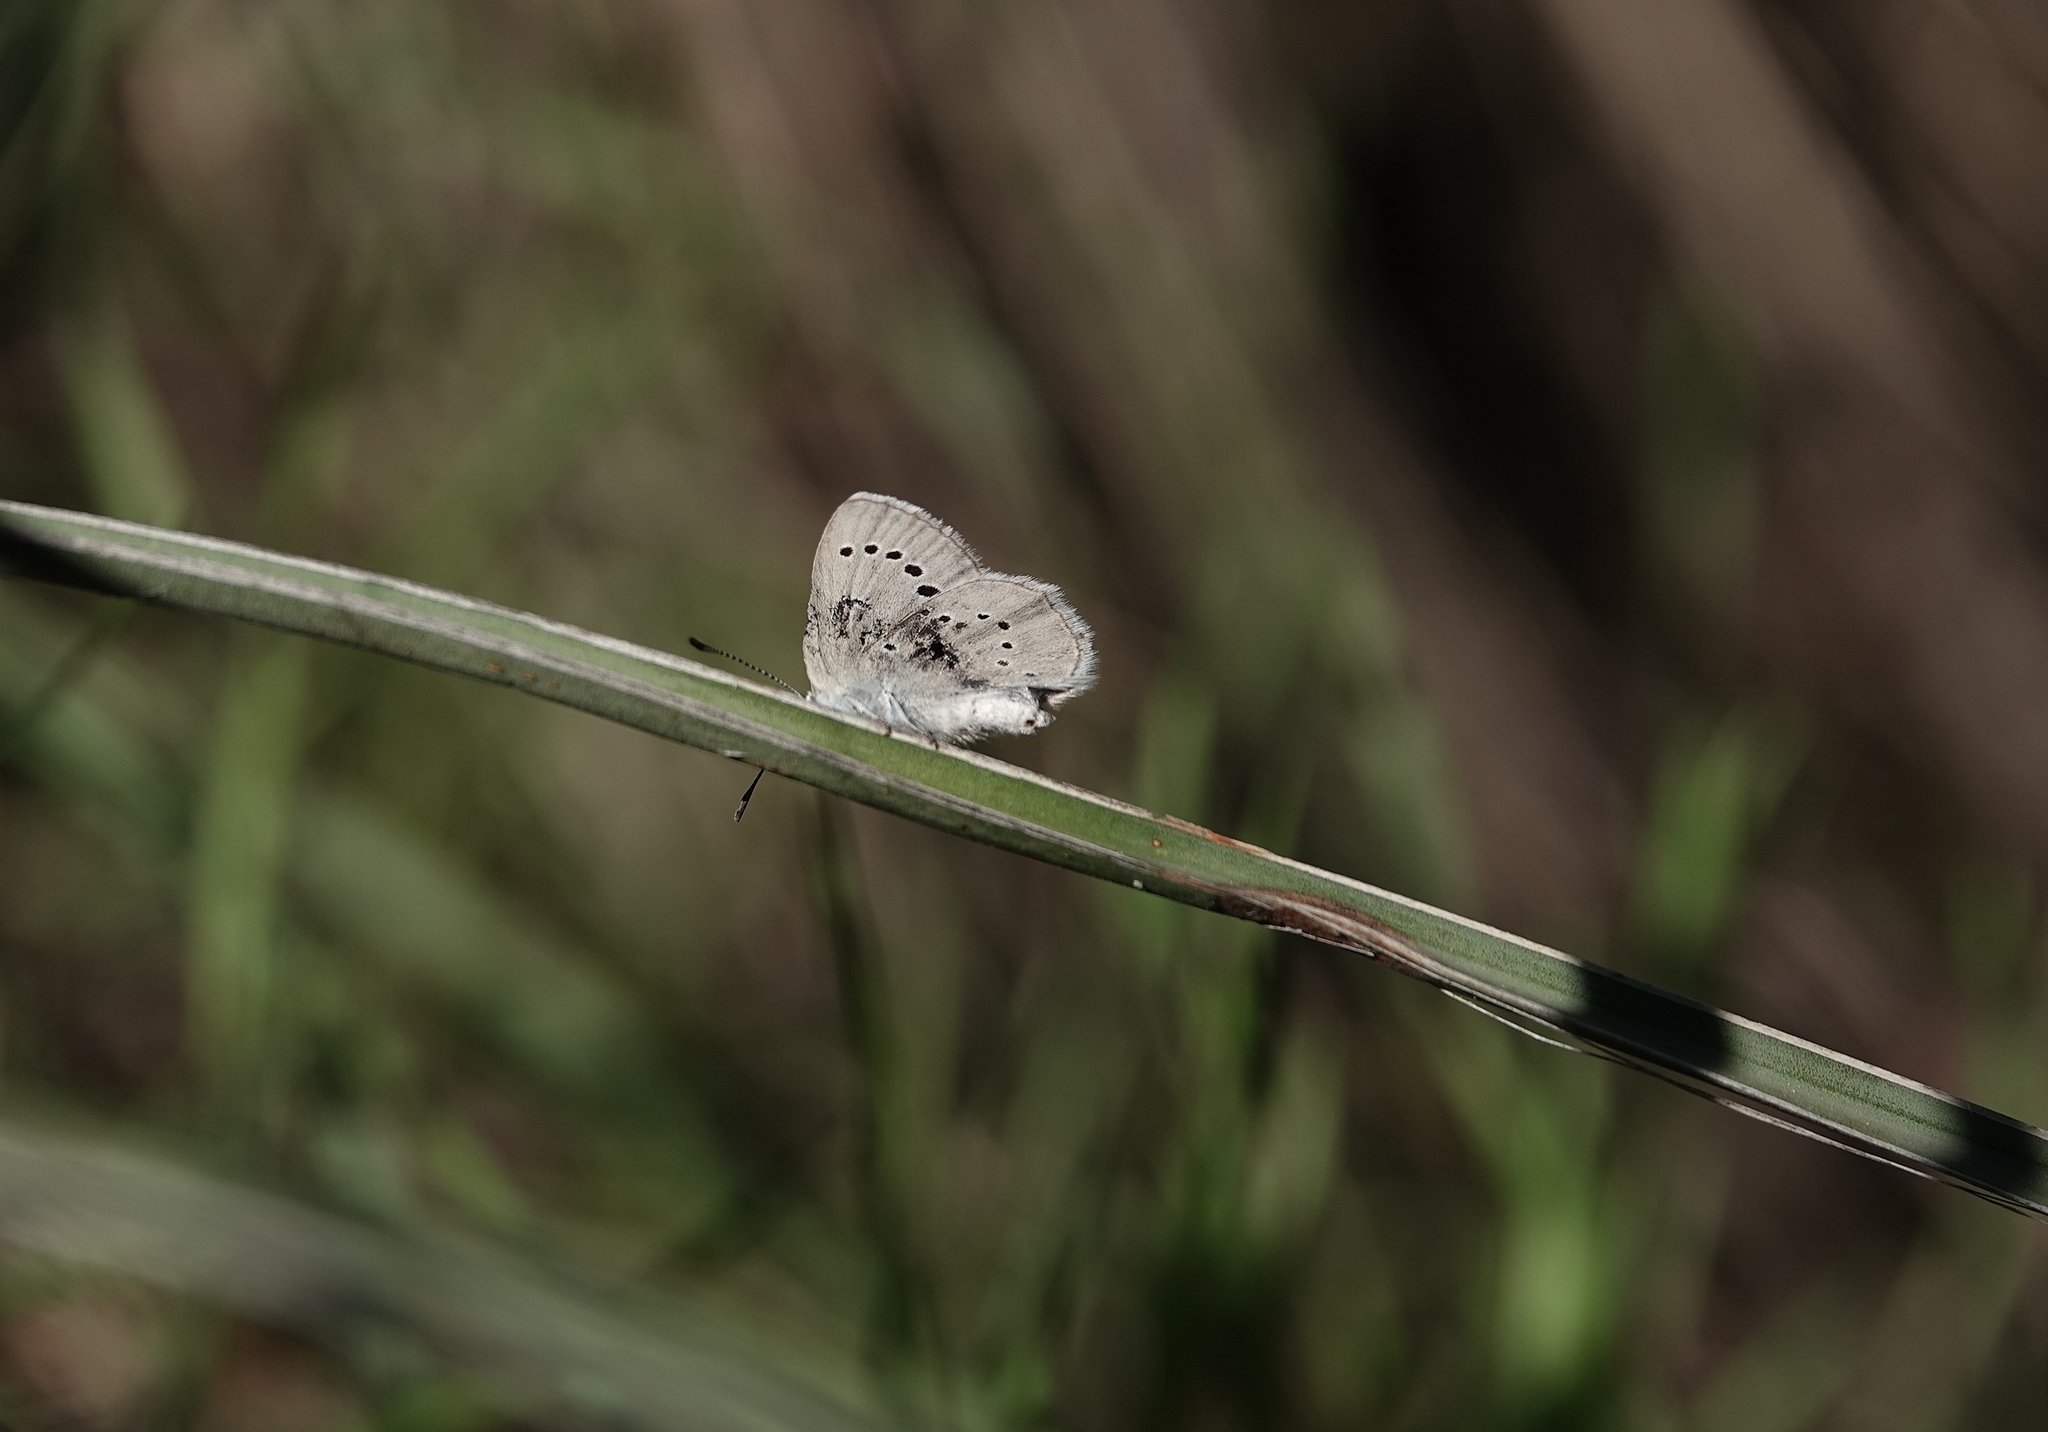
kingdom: Animalia
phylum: Arthropoda
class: Insecta
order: Lepidoptera
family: Lycaenidae
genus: Glaucopsyche
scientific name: Glaucopsyche lygdamus
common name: Silvery blue
